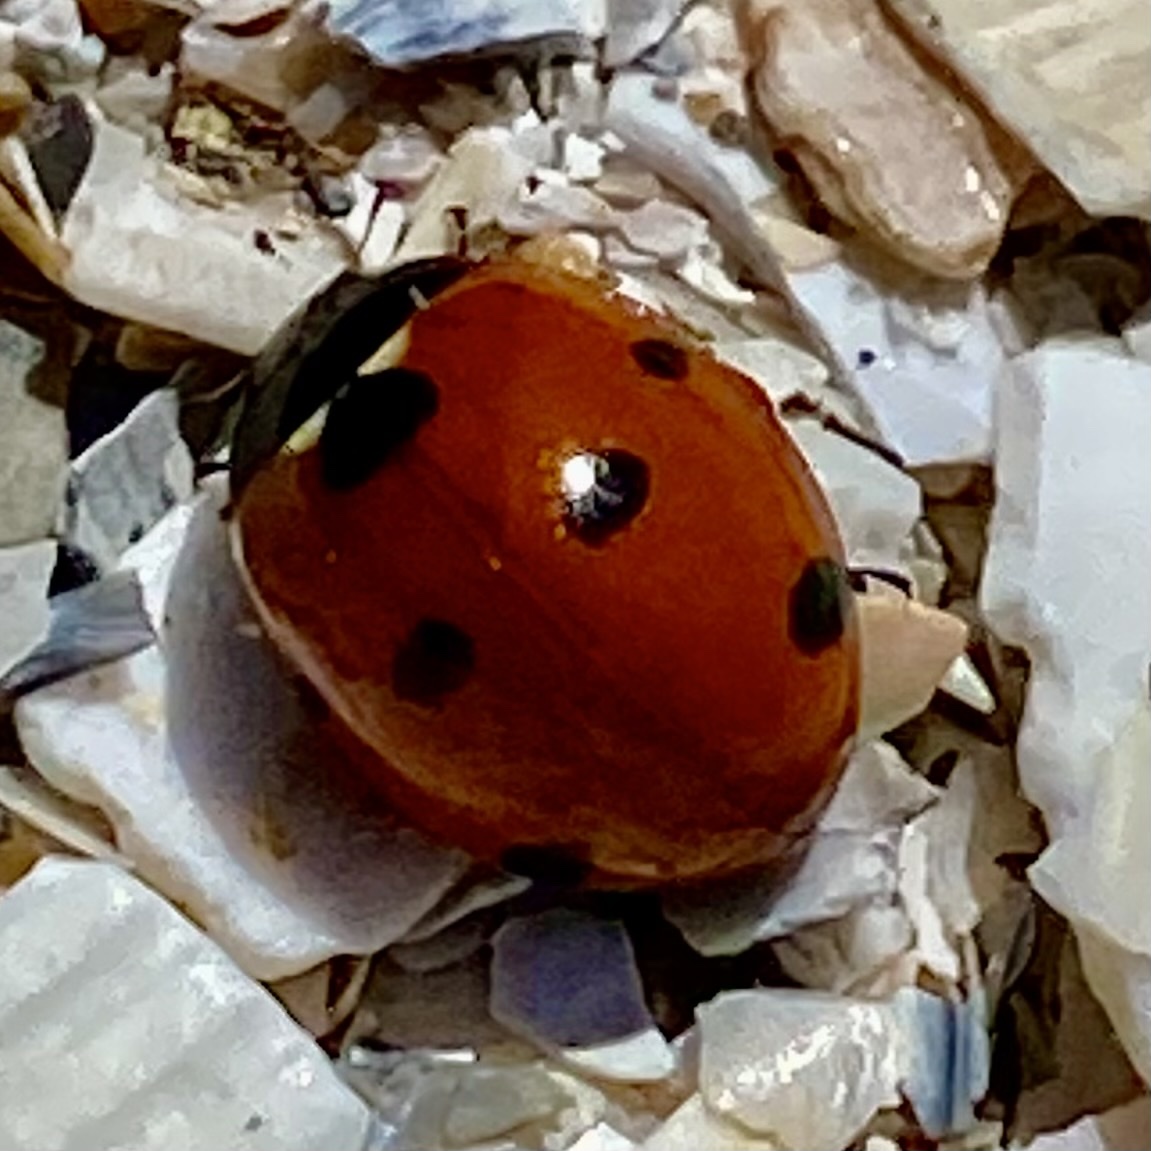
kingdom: Animalia
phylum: Arthropoda
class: Insecta
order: Coleoptera
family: Coccinellidae
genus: Coccinella
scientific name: Coccinella septempunctata
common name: Sevenspotted lady beetle
